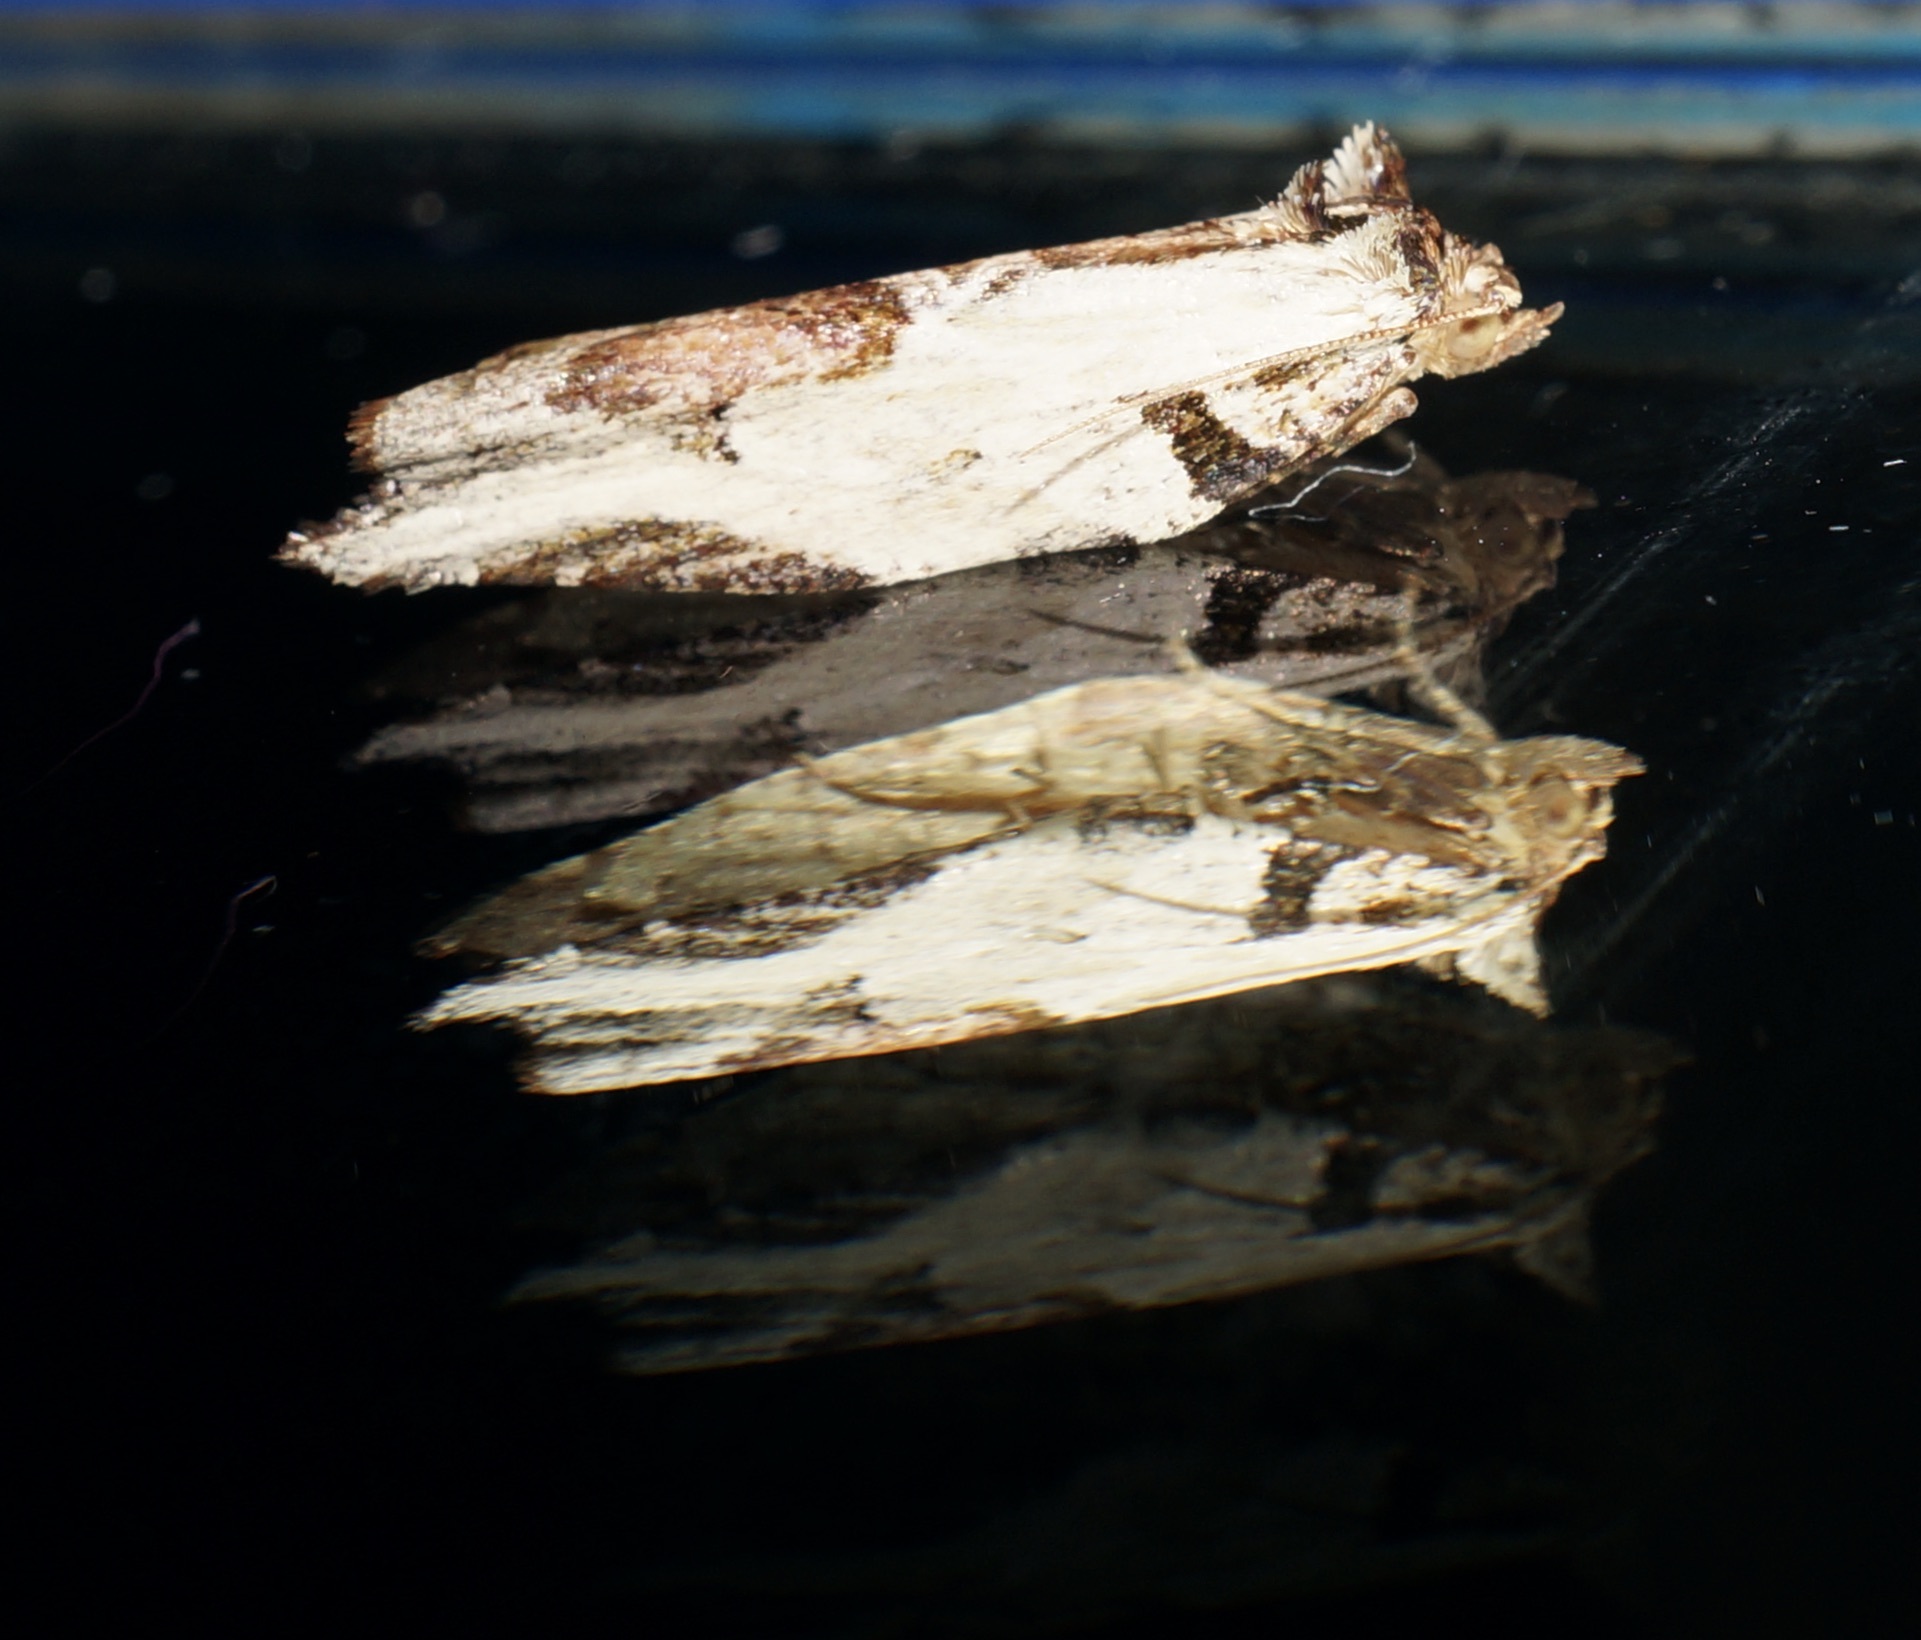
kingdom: Animalia
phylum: Arthropoda
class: Insecta
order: Lepidoptera
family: Tortricidae
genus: Epalxiphora
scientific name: Epalxiphora axenana
